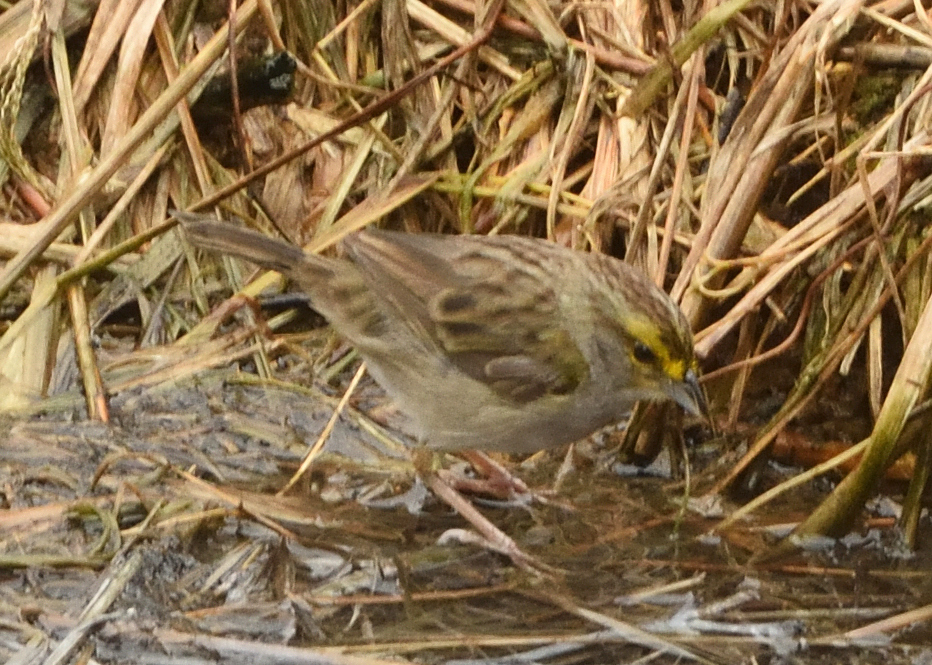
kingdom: Animalia
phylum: Chordata
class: Aves
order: Passeriformes
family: Passerellidae
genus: Ammodramus
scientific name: Ammodramus aurifrons
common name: Yellow-browed sparrow
